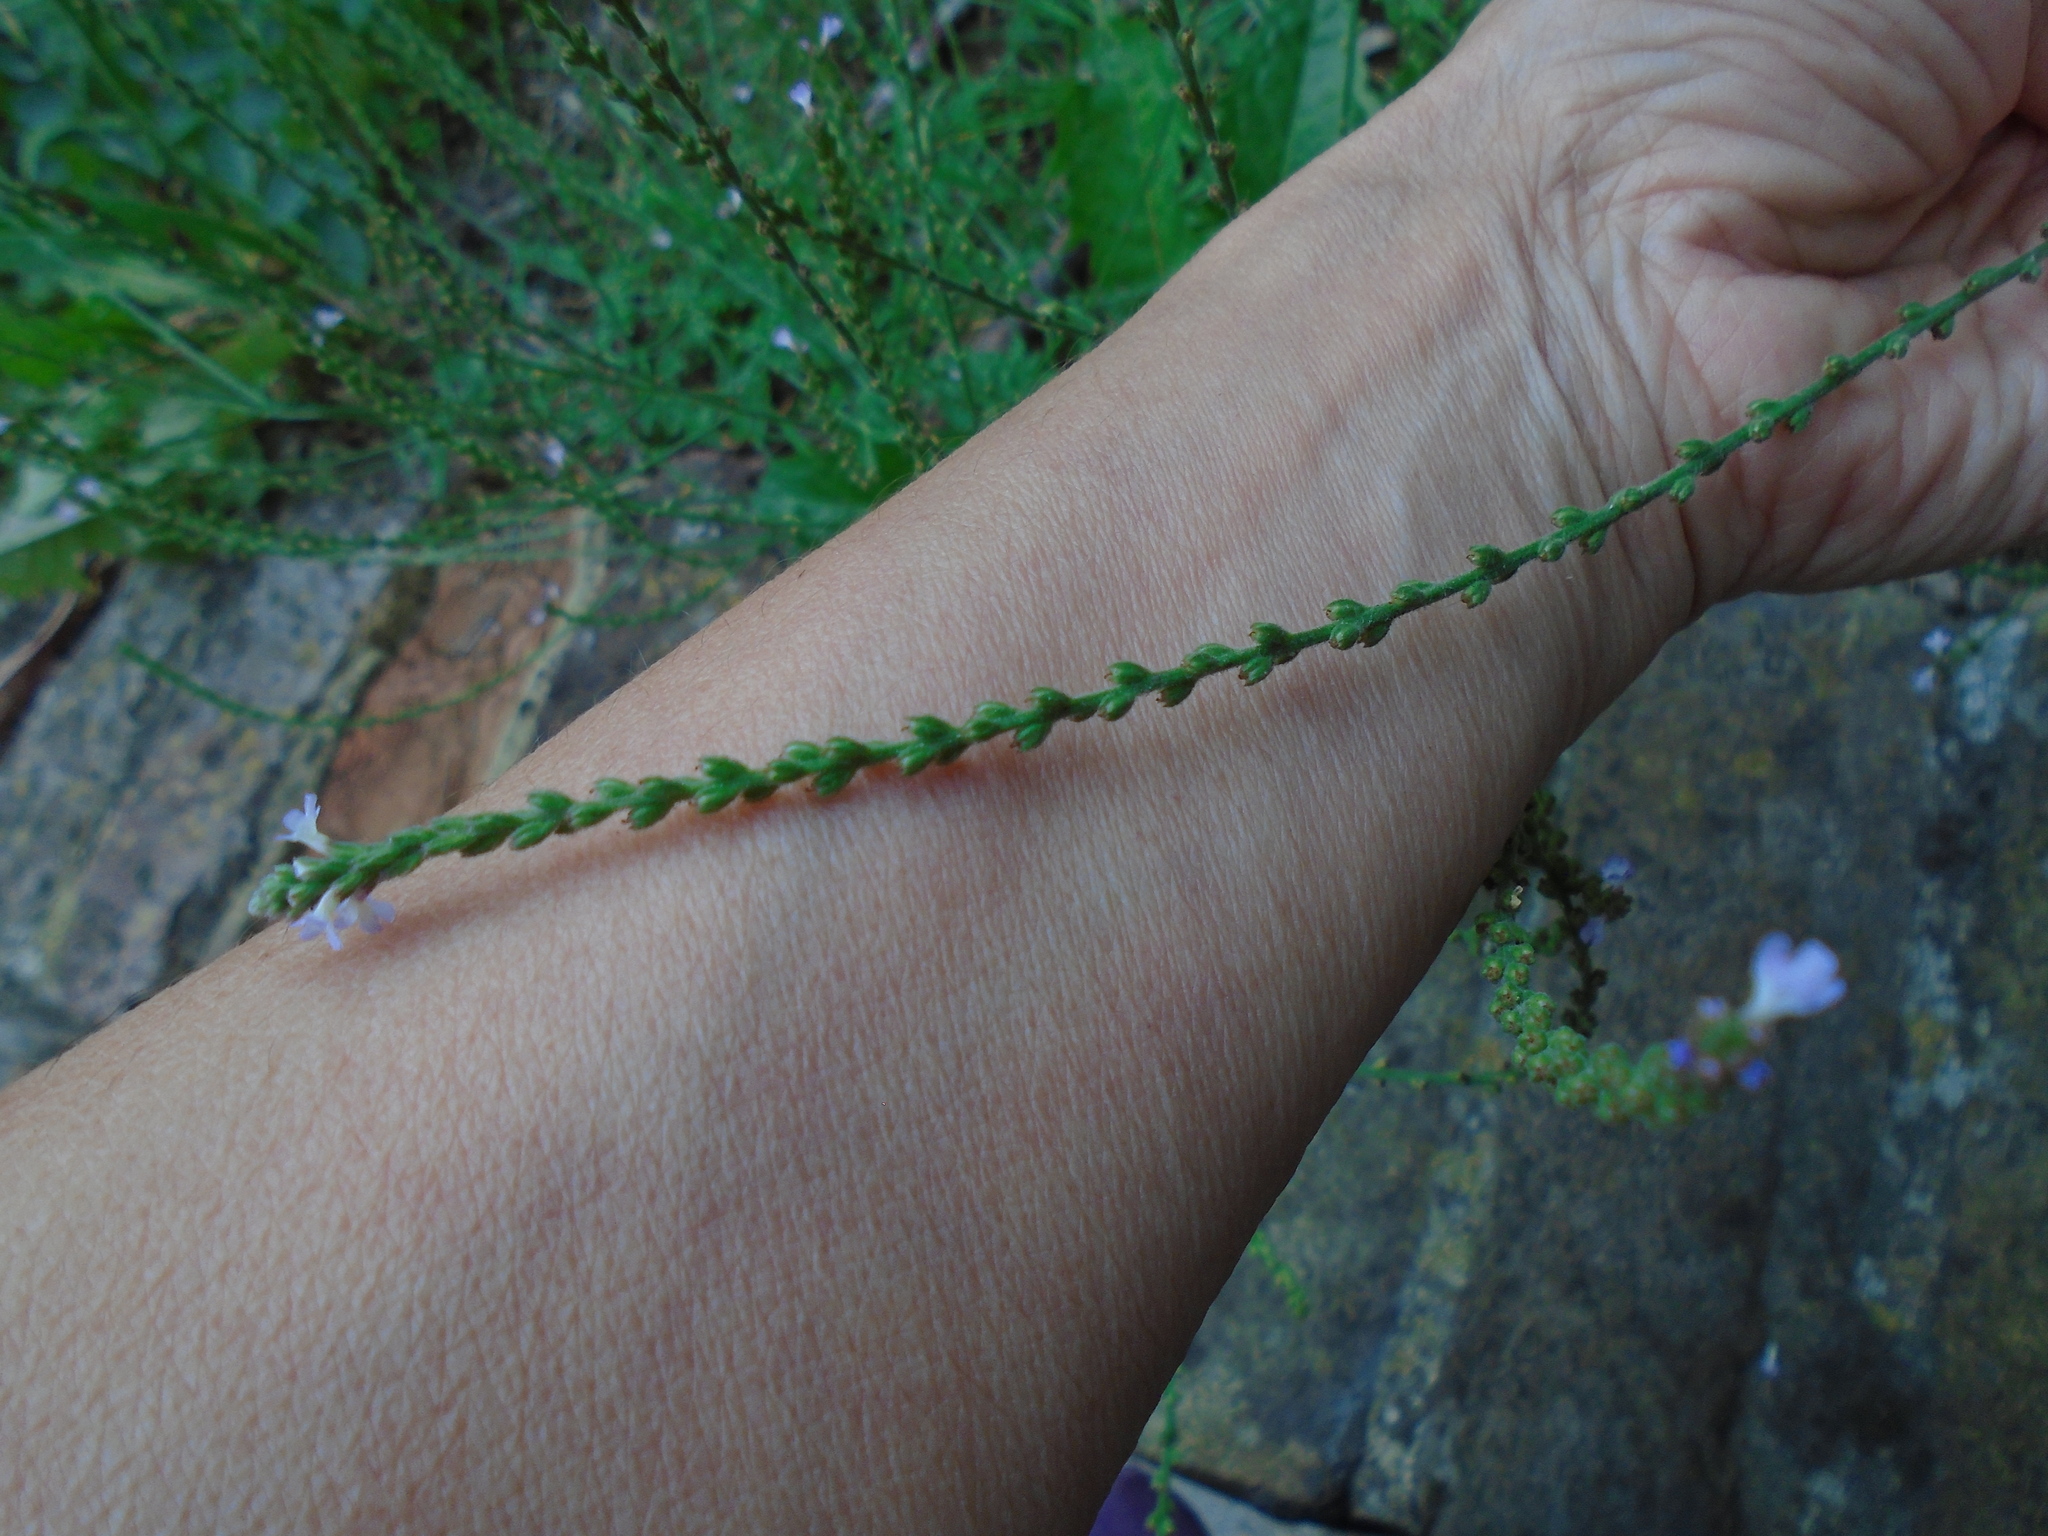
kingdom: Plantae
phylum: Tracheophyta
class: Magnoliopsida
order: Lamiales
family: Verbenaceae
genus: Verbena
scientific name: Verbena officinalis
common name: Vervain
